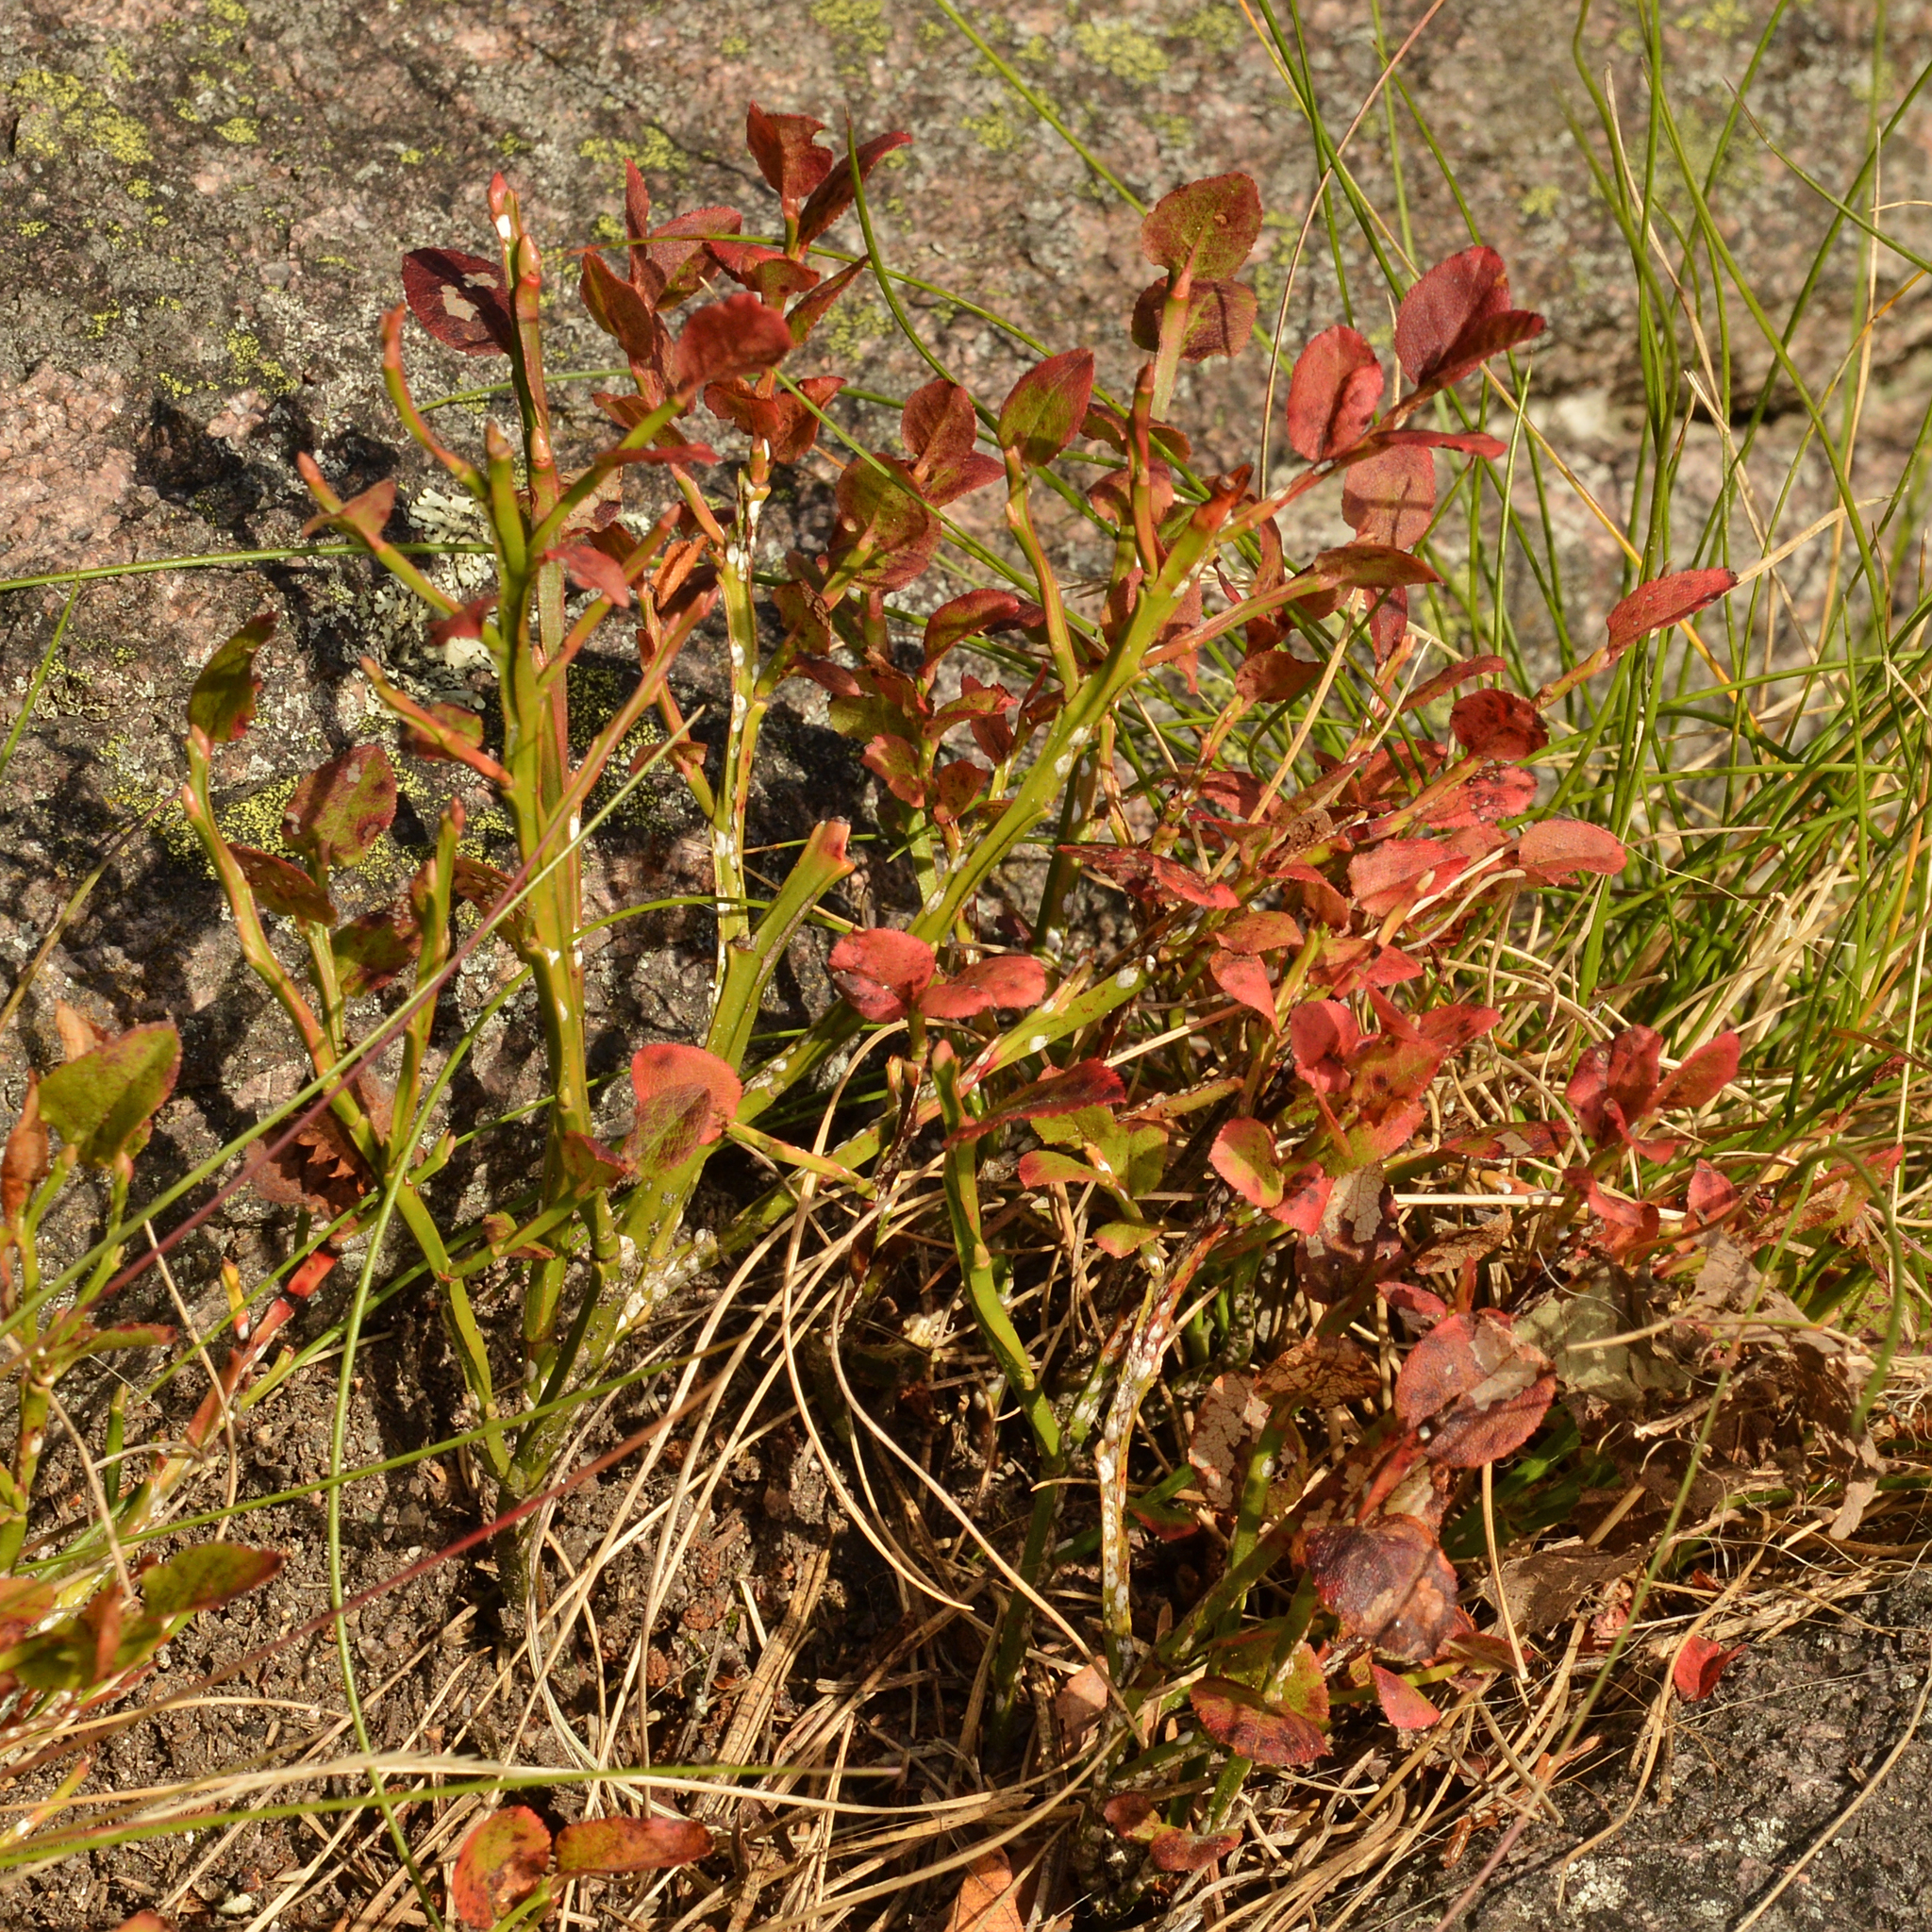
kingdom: Plantae
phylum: Tracheophyta
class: Magnoliopsida
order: Ericales
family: Ericaceae
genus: Vaccinium
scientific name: Vaccinium myrtillus
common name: Bilberry
